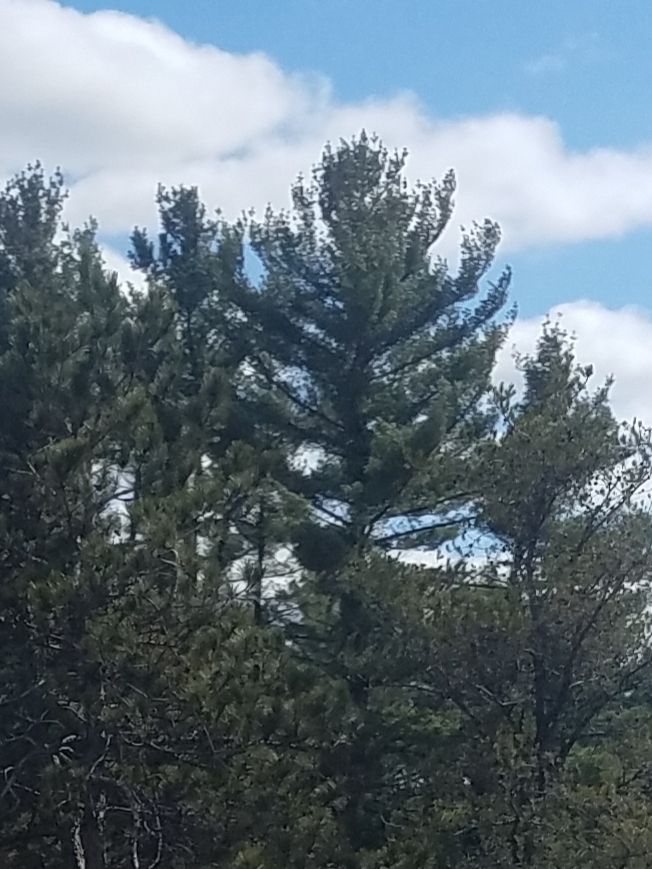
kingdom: Plantae
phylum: Tracheophyta
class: Pinopsida
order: Pinales
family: Pinaceae
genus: Pinus
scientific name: Pinus strobus
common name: Weymouth pine
